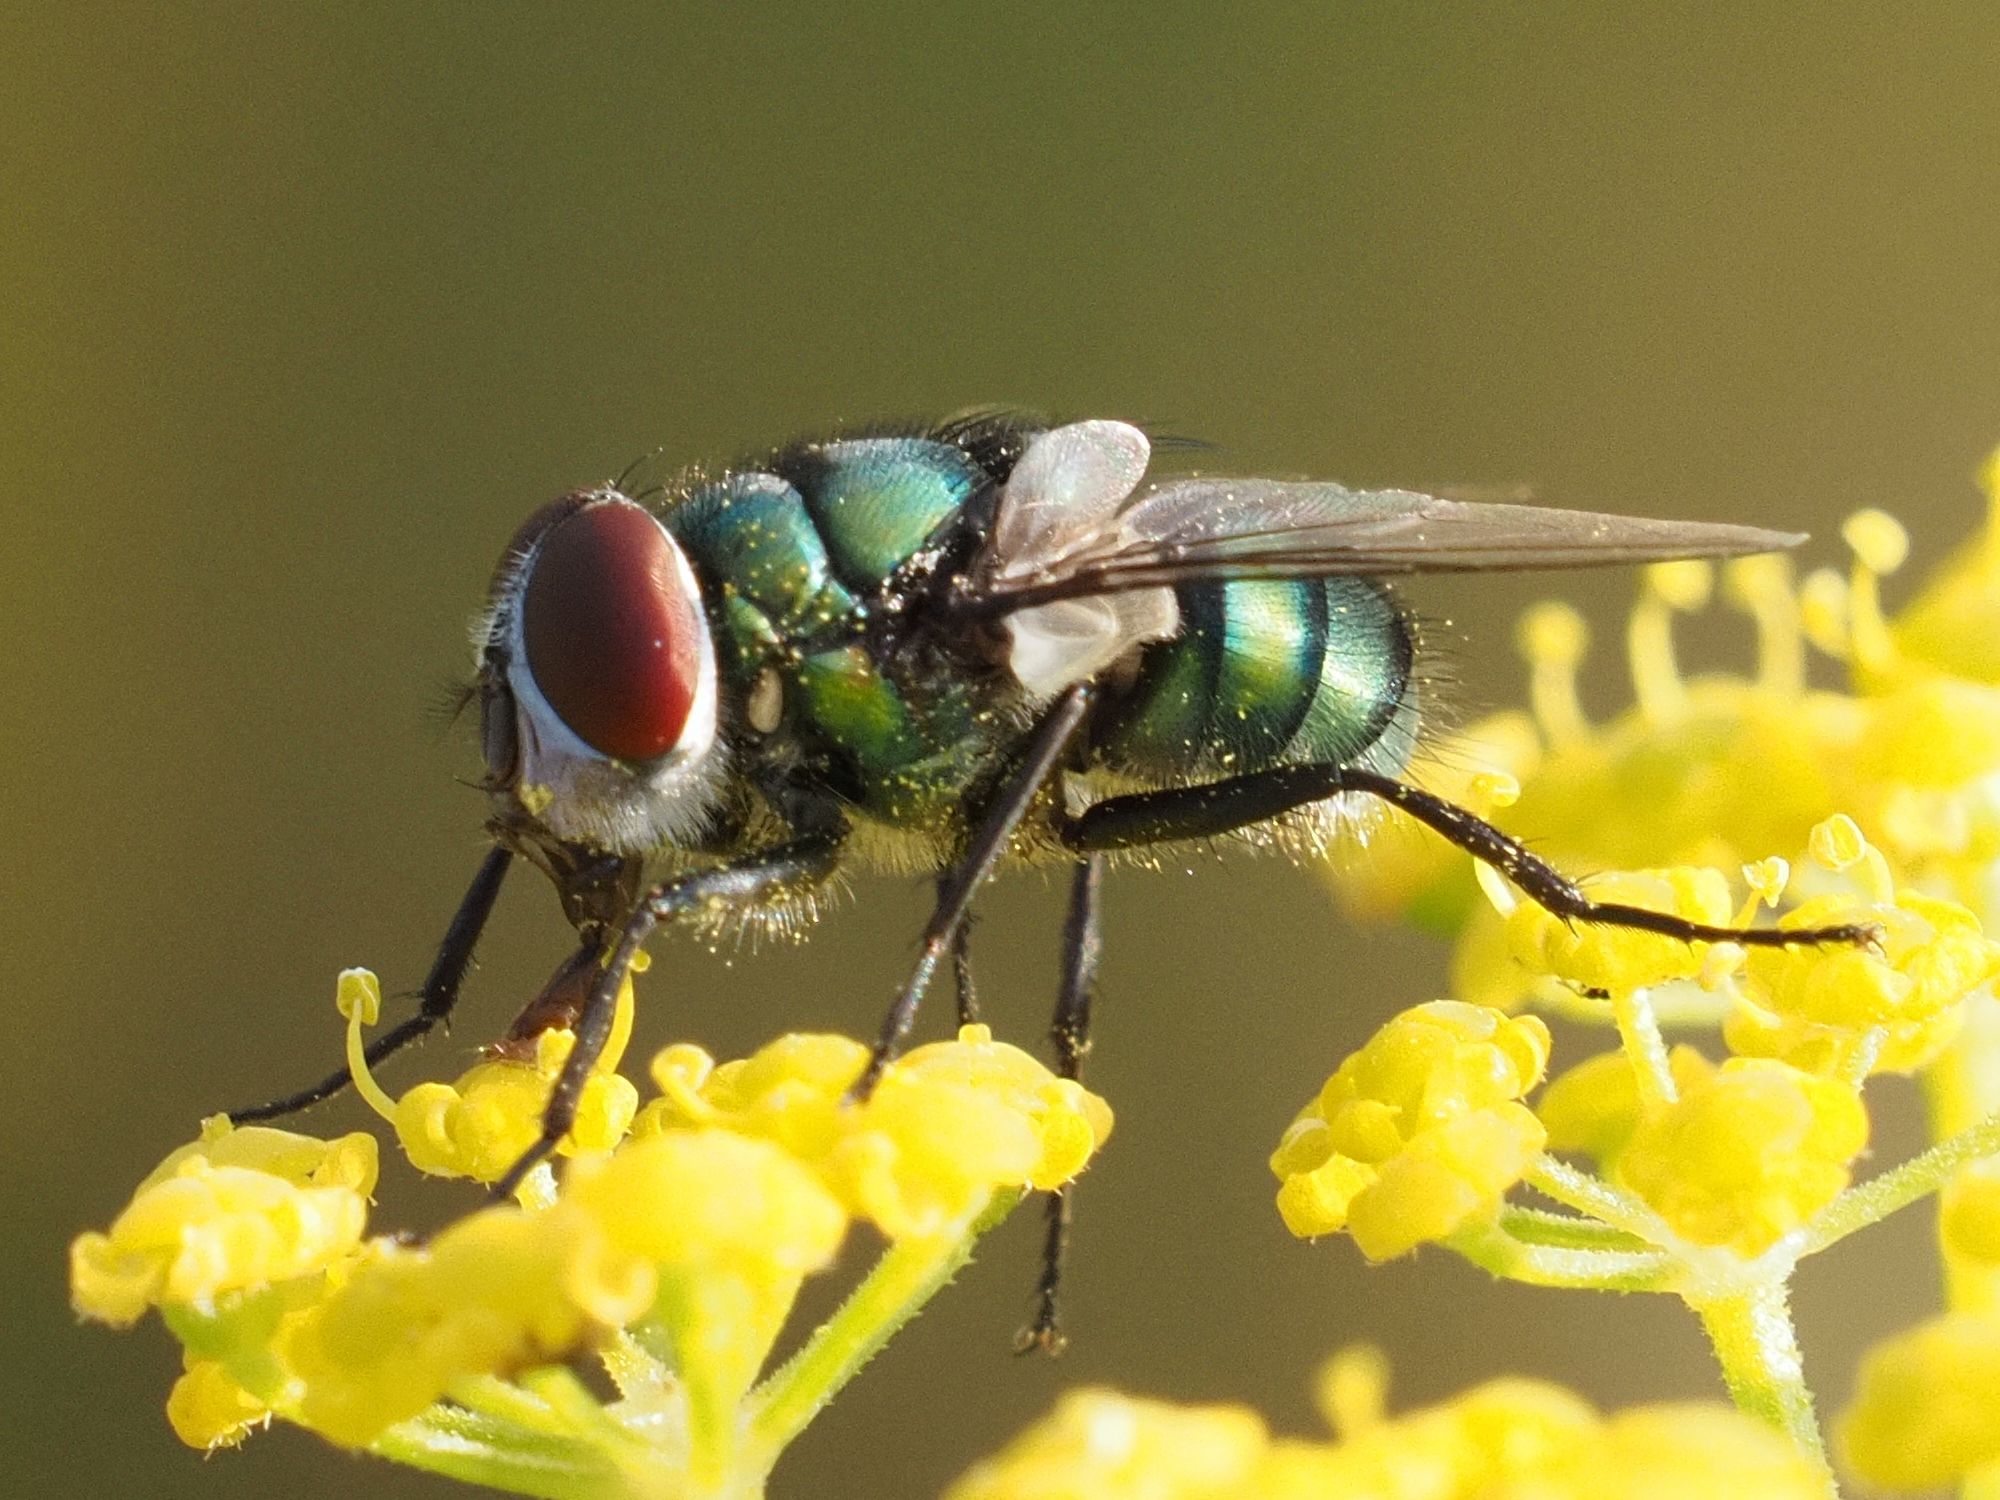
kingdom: Animalia
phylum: Arthropoda
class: Insecta
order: Diptera
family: Calliphoridae
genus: Chrysomya
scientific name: Chrysomya albiceps
